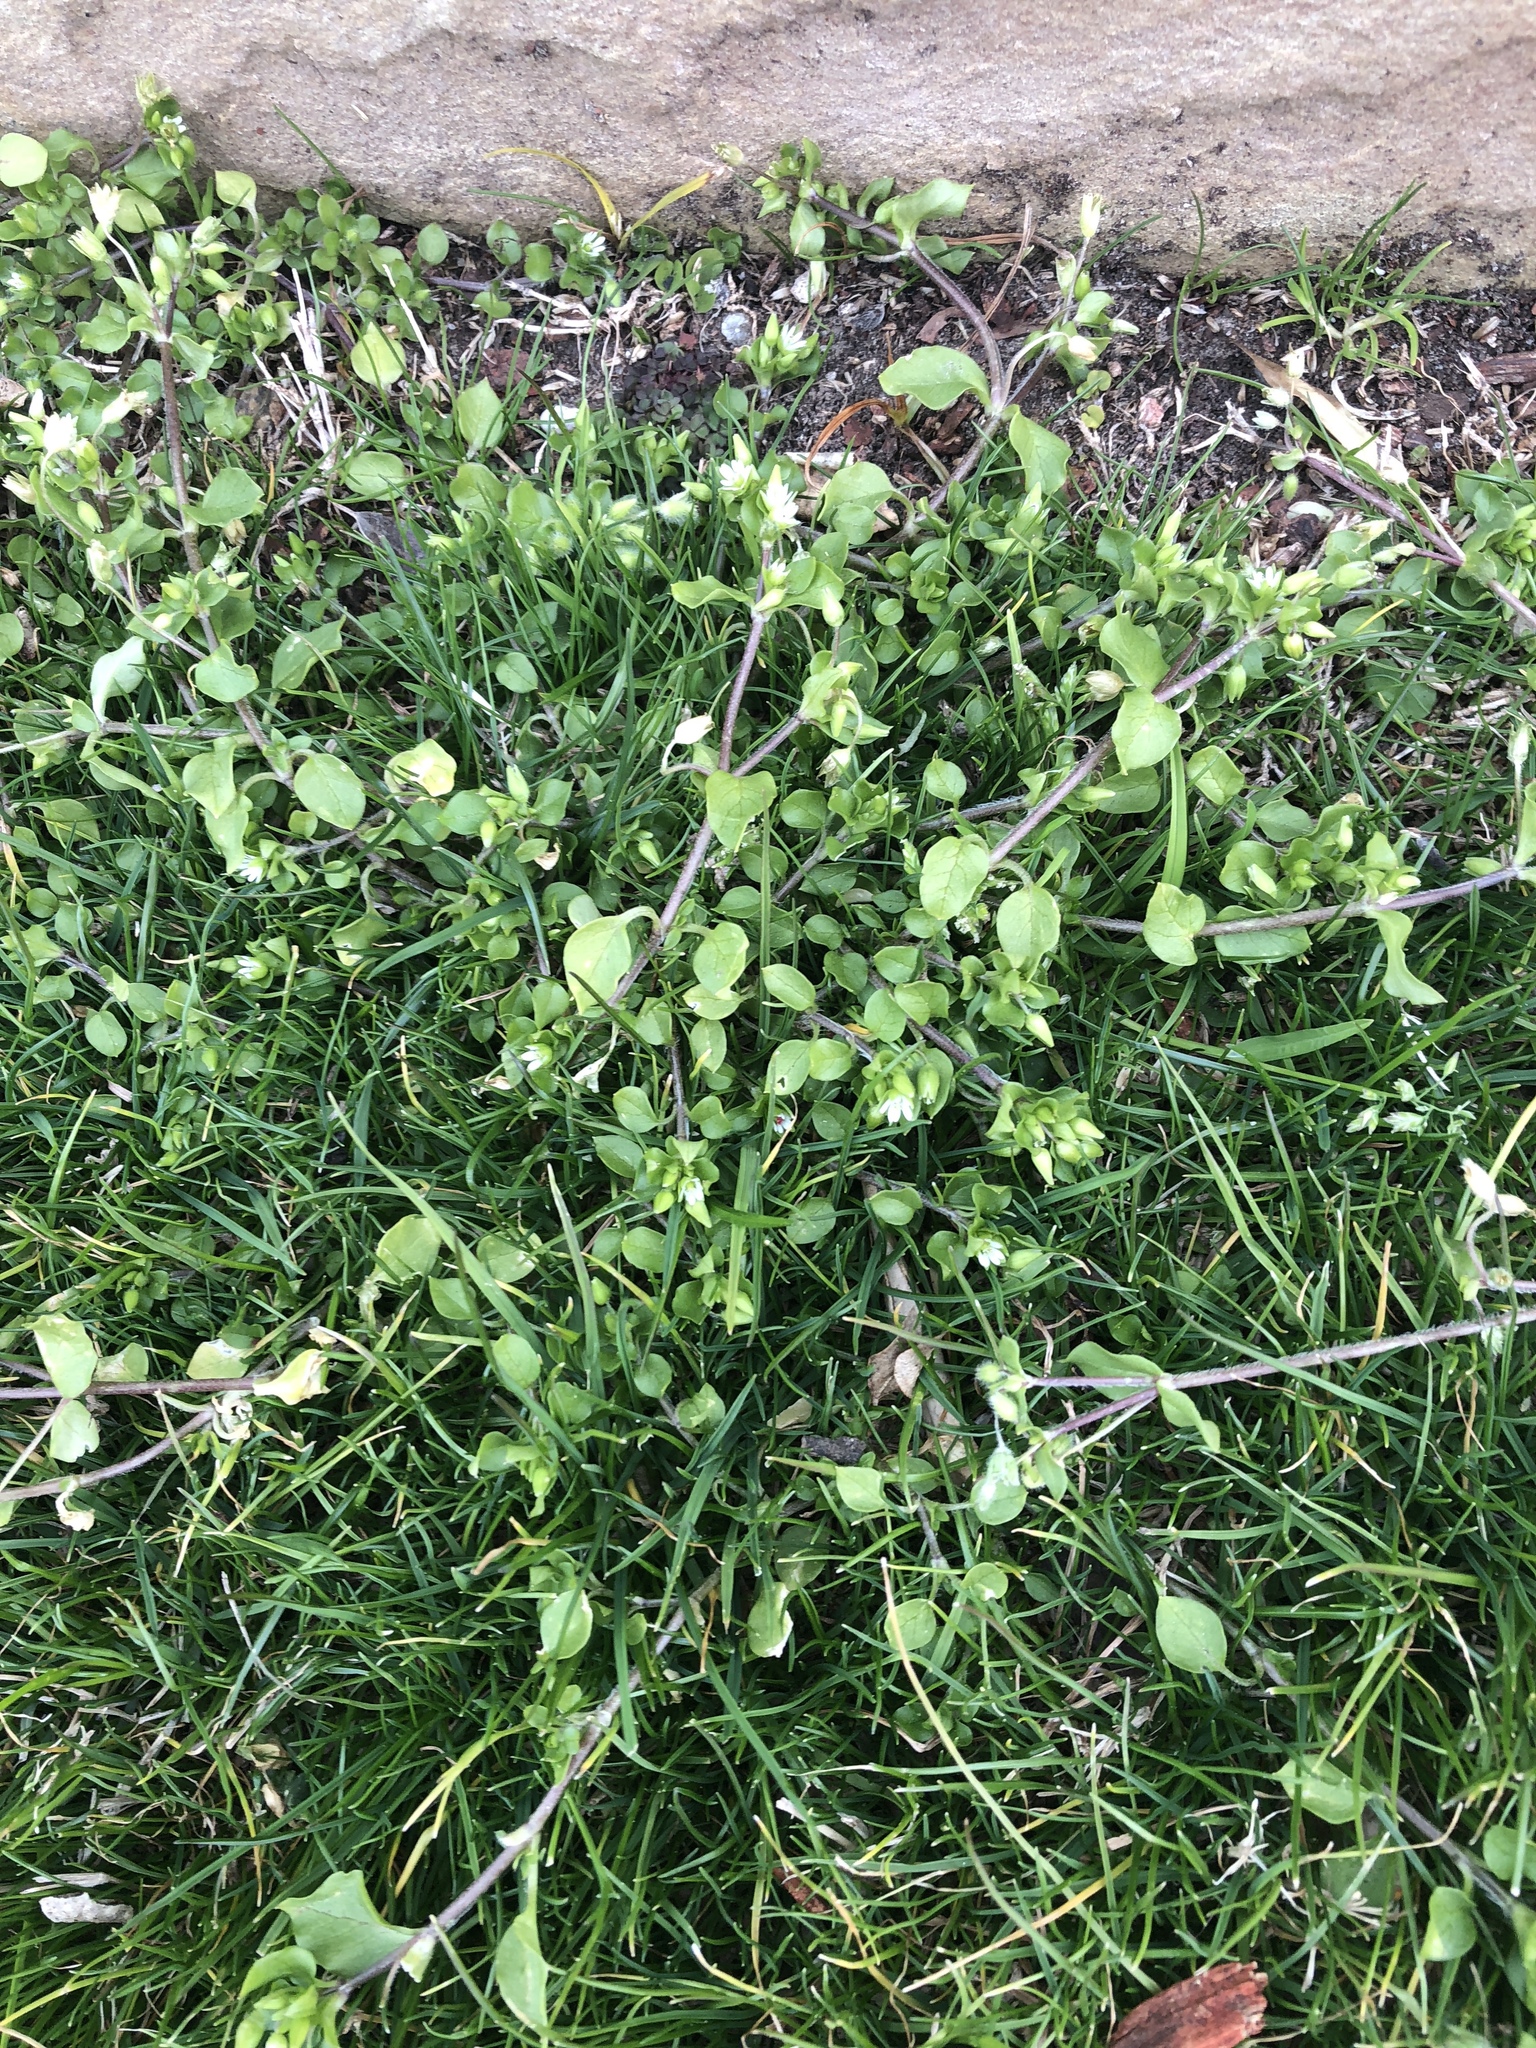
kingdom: Plantae
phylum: Tracheophyta
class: Magnoliopsida
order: Caryophyllales
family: Caryophyllaceae
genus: Stellaria
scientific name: Stellaria media
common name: Common chickweed
